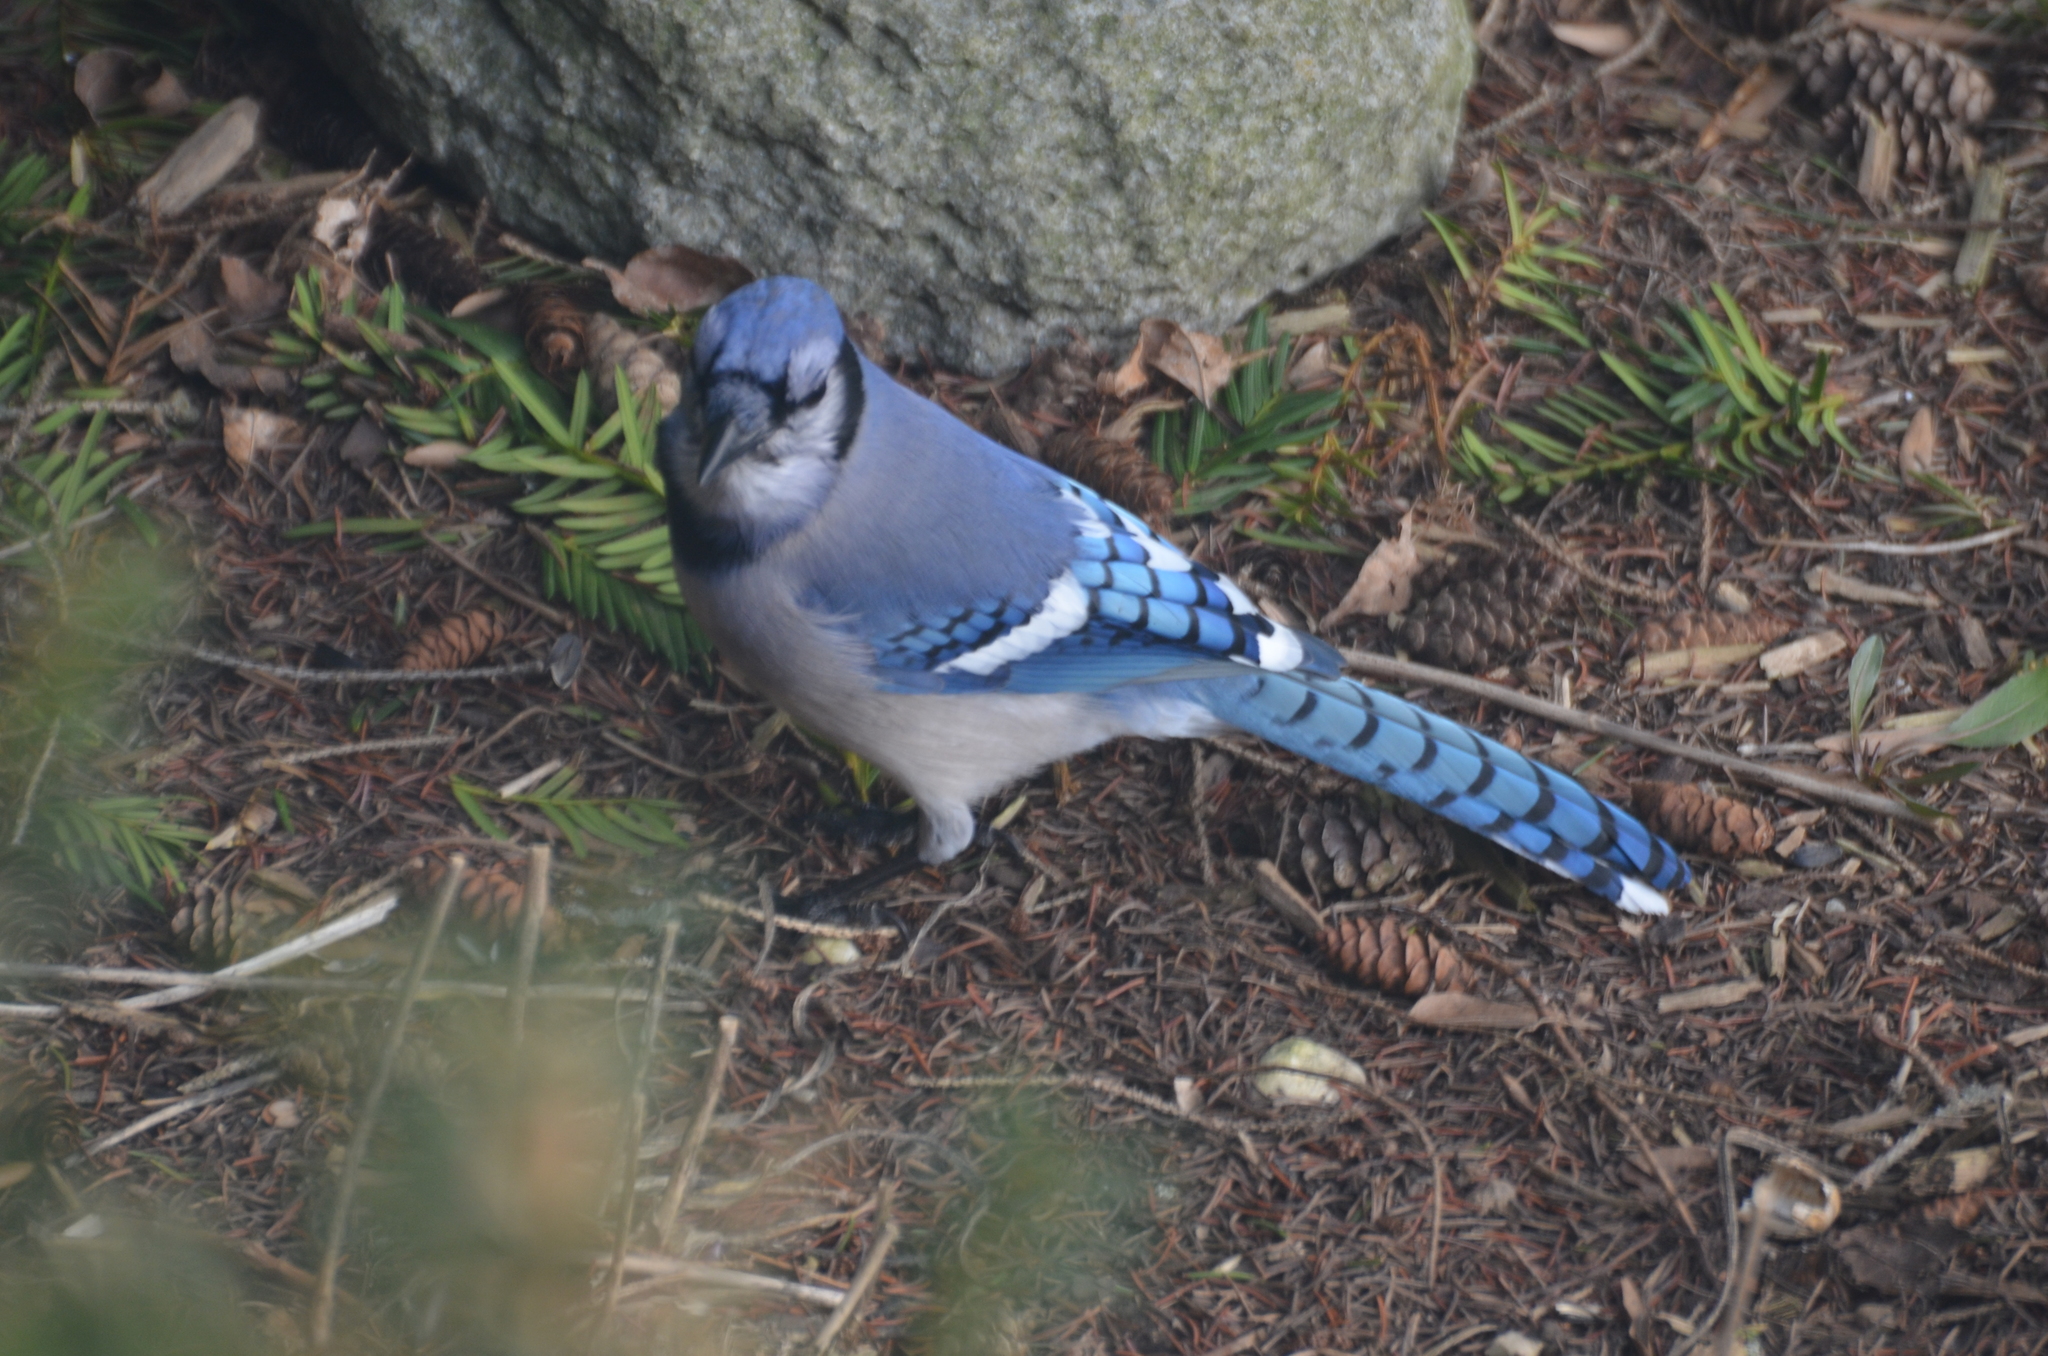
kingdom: Animalia
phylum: Chordata
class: Aves
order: Passeriformes
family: Corvidae
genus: Cyanocitta
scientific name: Cyanocitta cristata
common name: Blue jay
